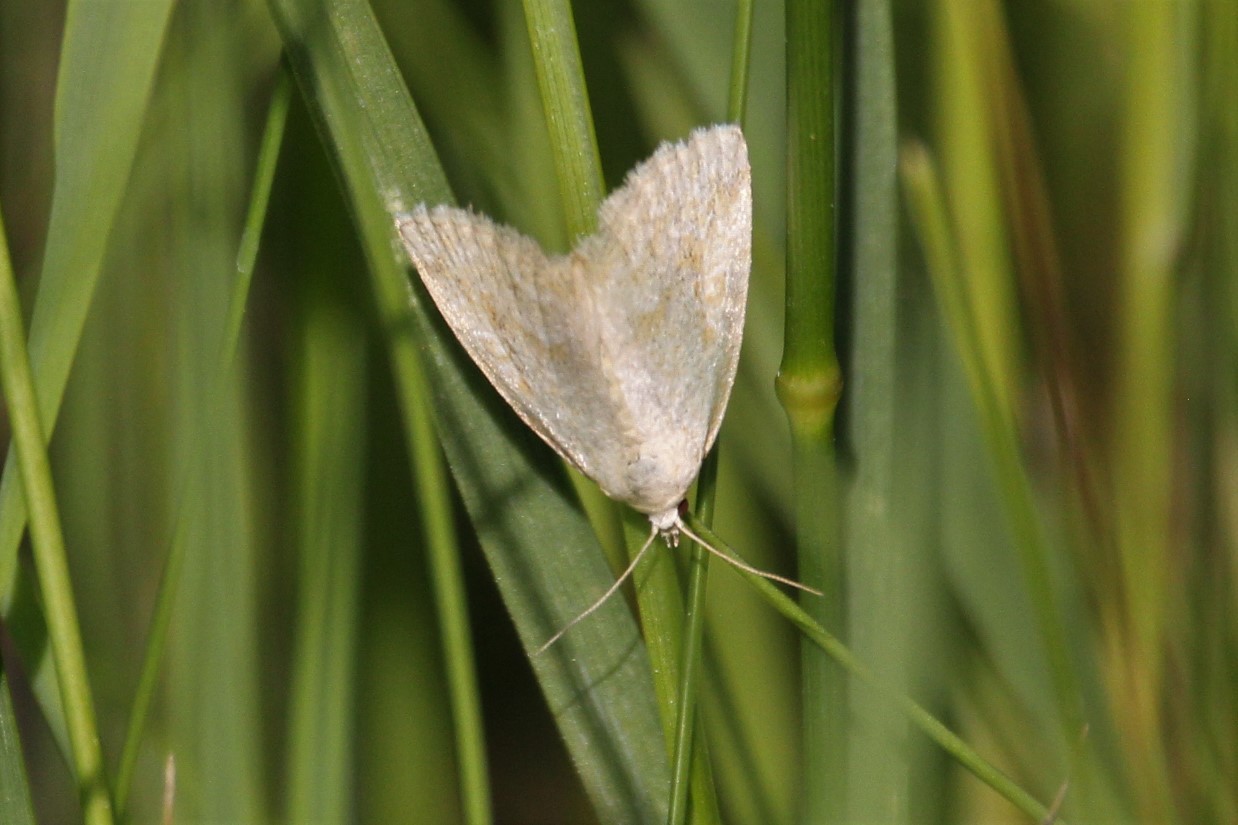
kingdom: Animalia
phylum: Arthropoda
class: Insecta
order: Lepidoptera
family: Noctuidae
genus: Protodeltote
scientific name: Protodeltote albidula
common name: Pale glyph
